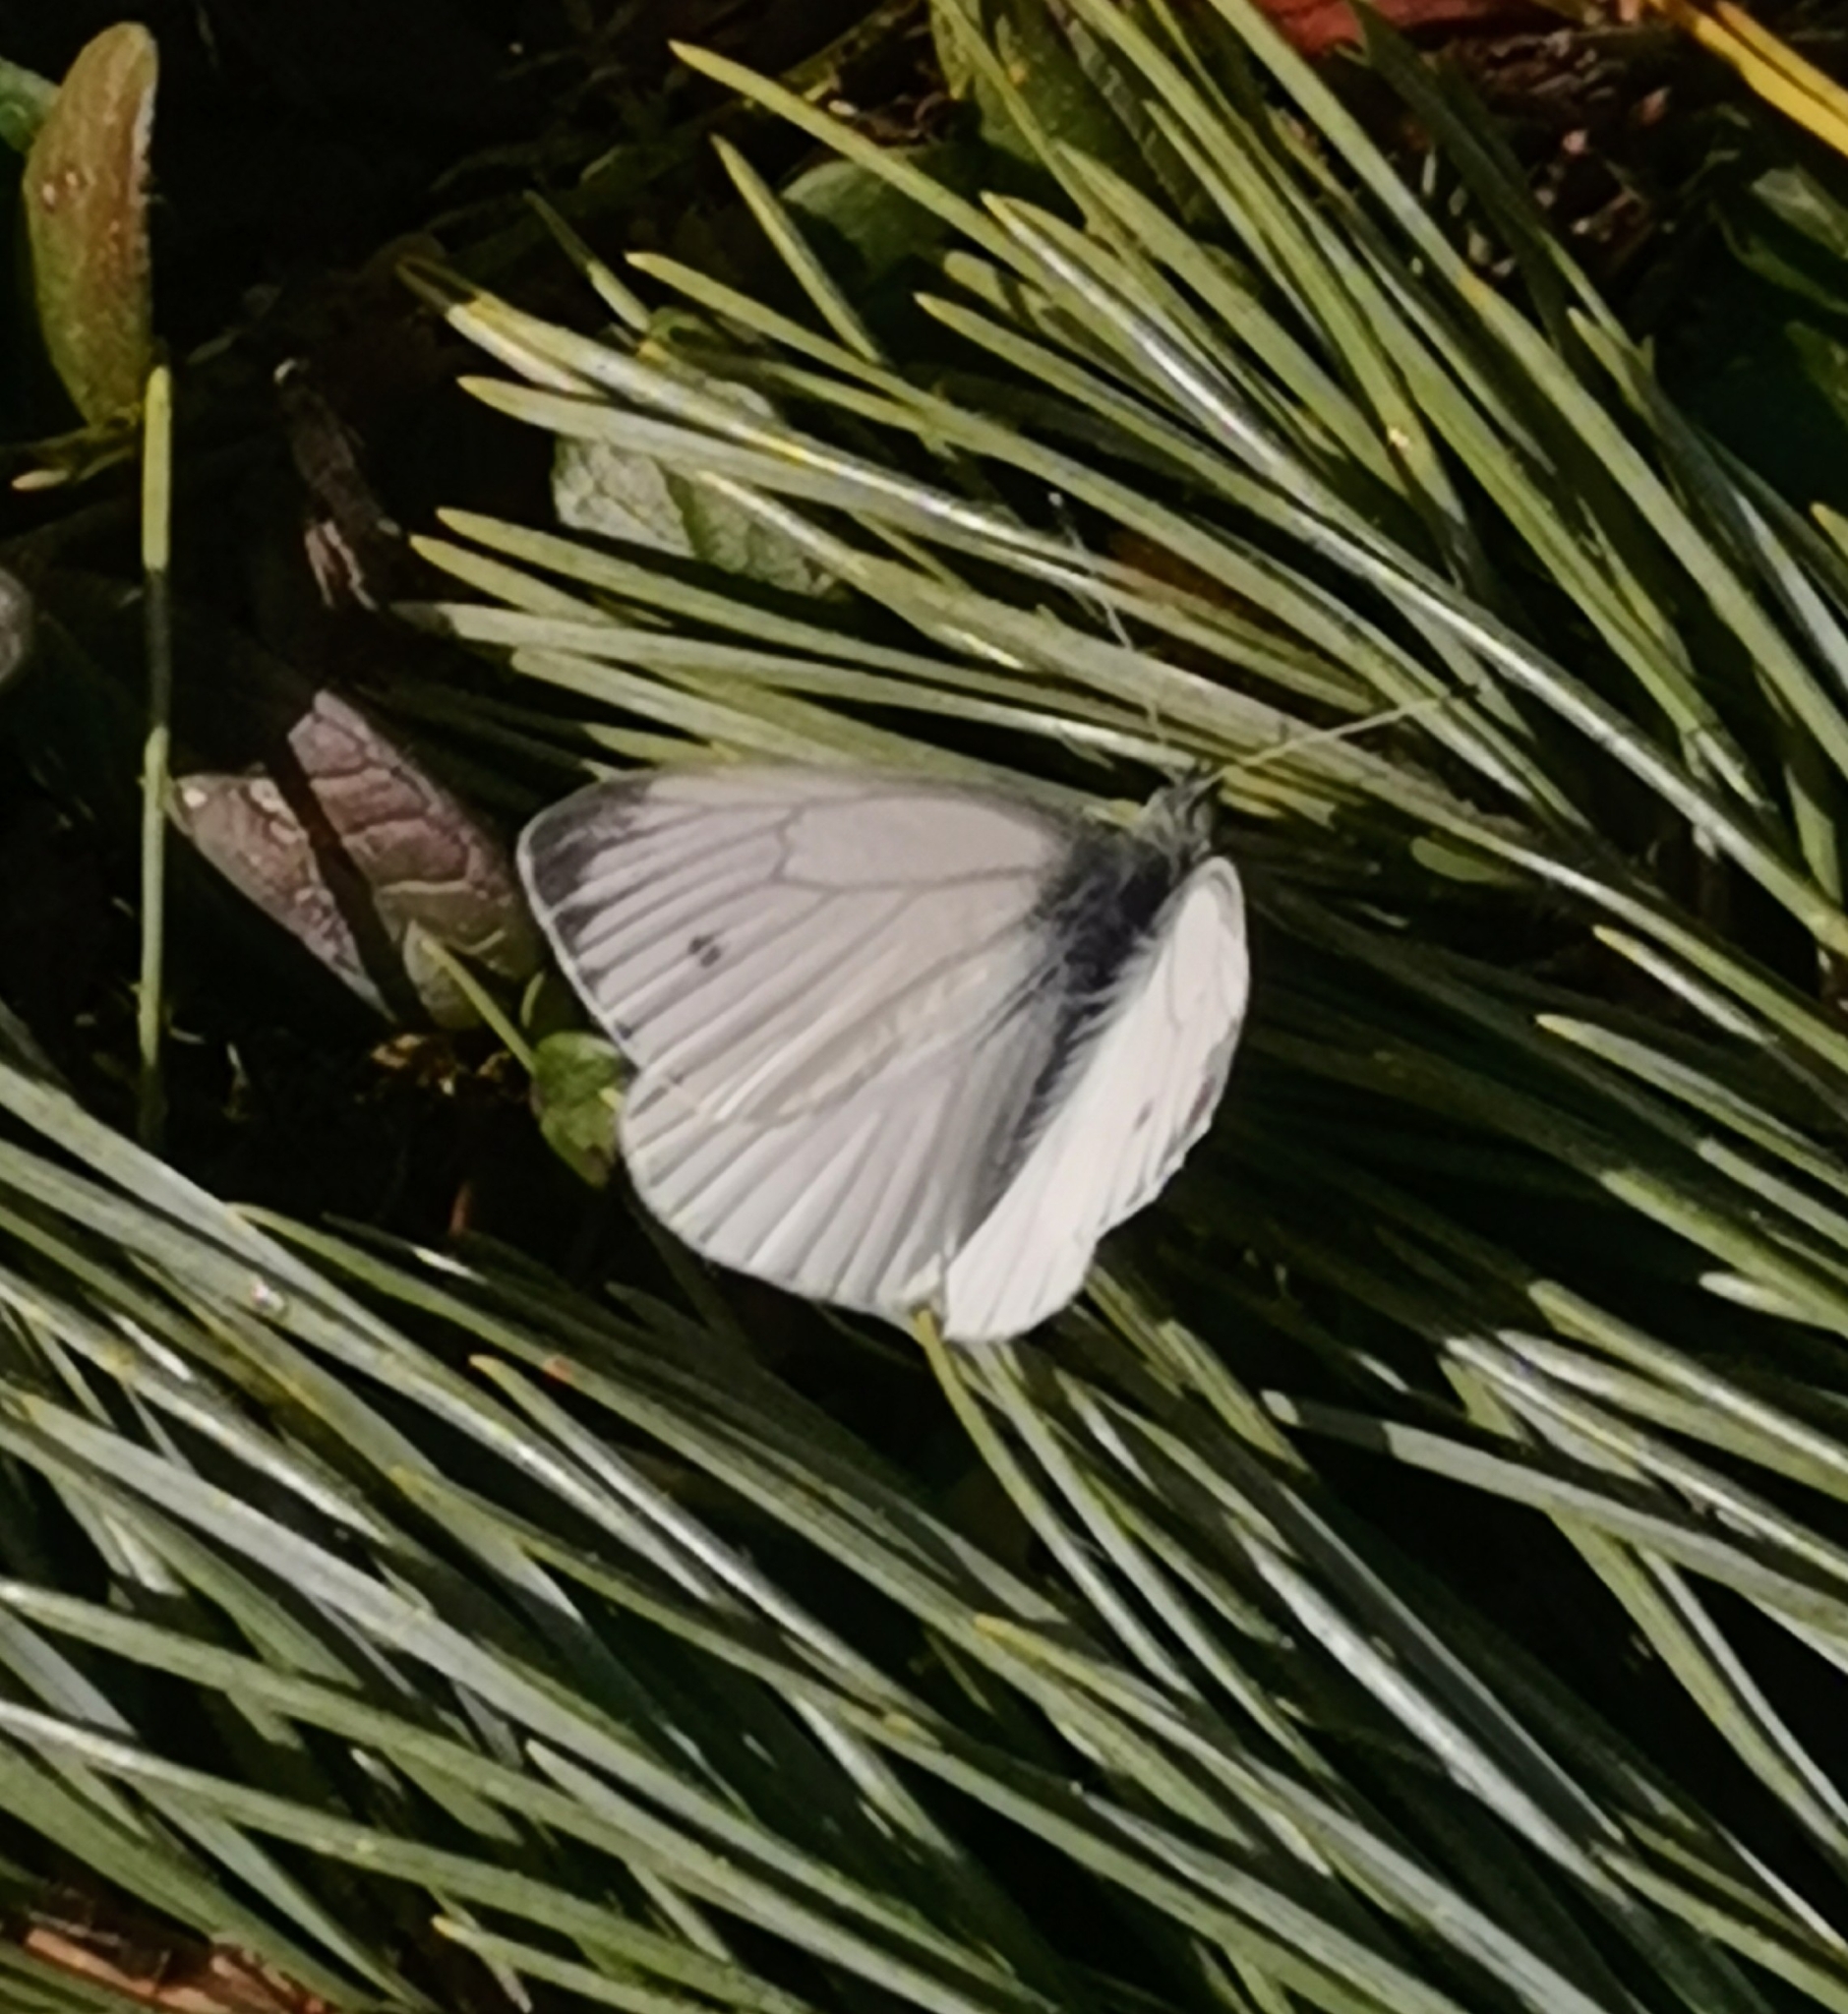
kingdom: Animalia
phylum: Arthropoda
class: Insecta
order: Lepidoptera
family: Pieridae
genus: Pieris
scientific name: Pieris napi
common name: Green-veined white
